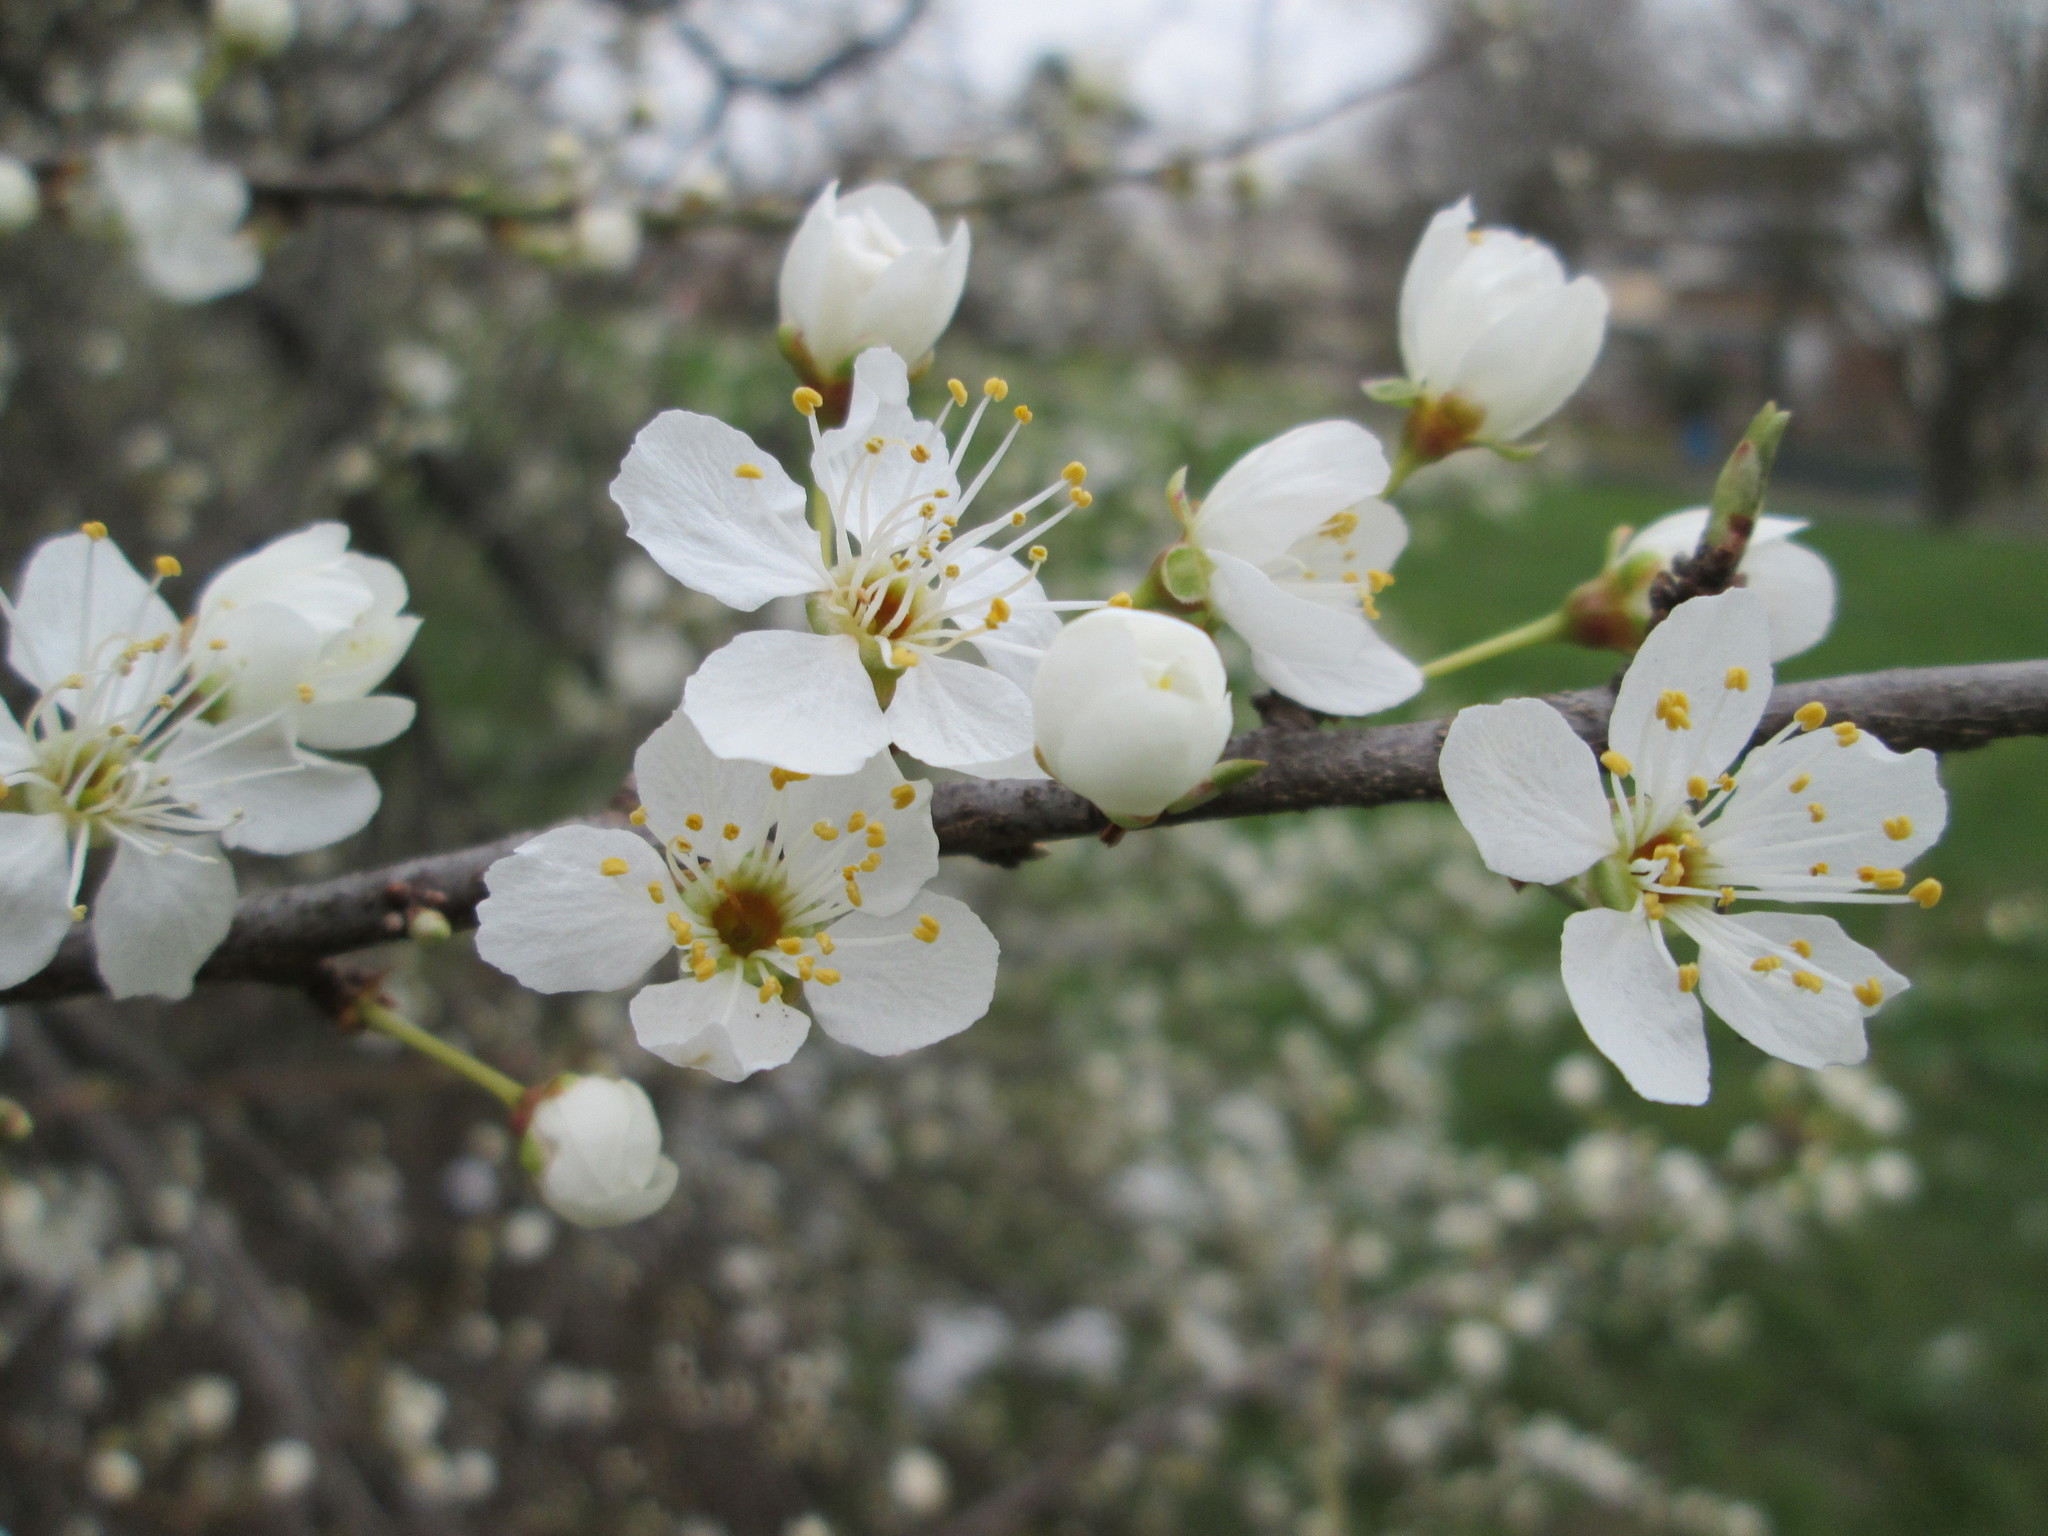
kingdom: Plantae
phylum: Tracheophyta
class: Magnoliopsida
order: Rosales
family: Rosaceae
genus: Prunus
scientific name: Prunus cerasifera
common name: Cherry plum
